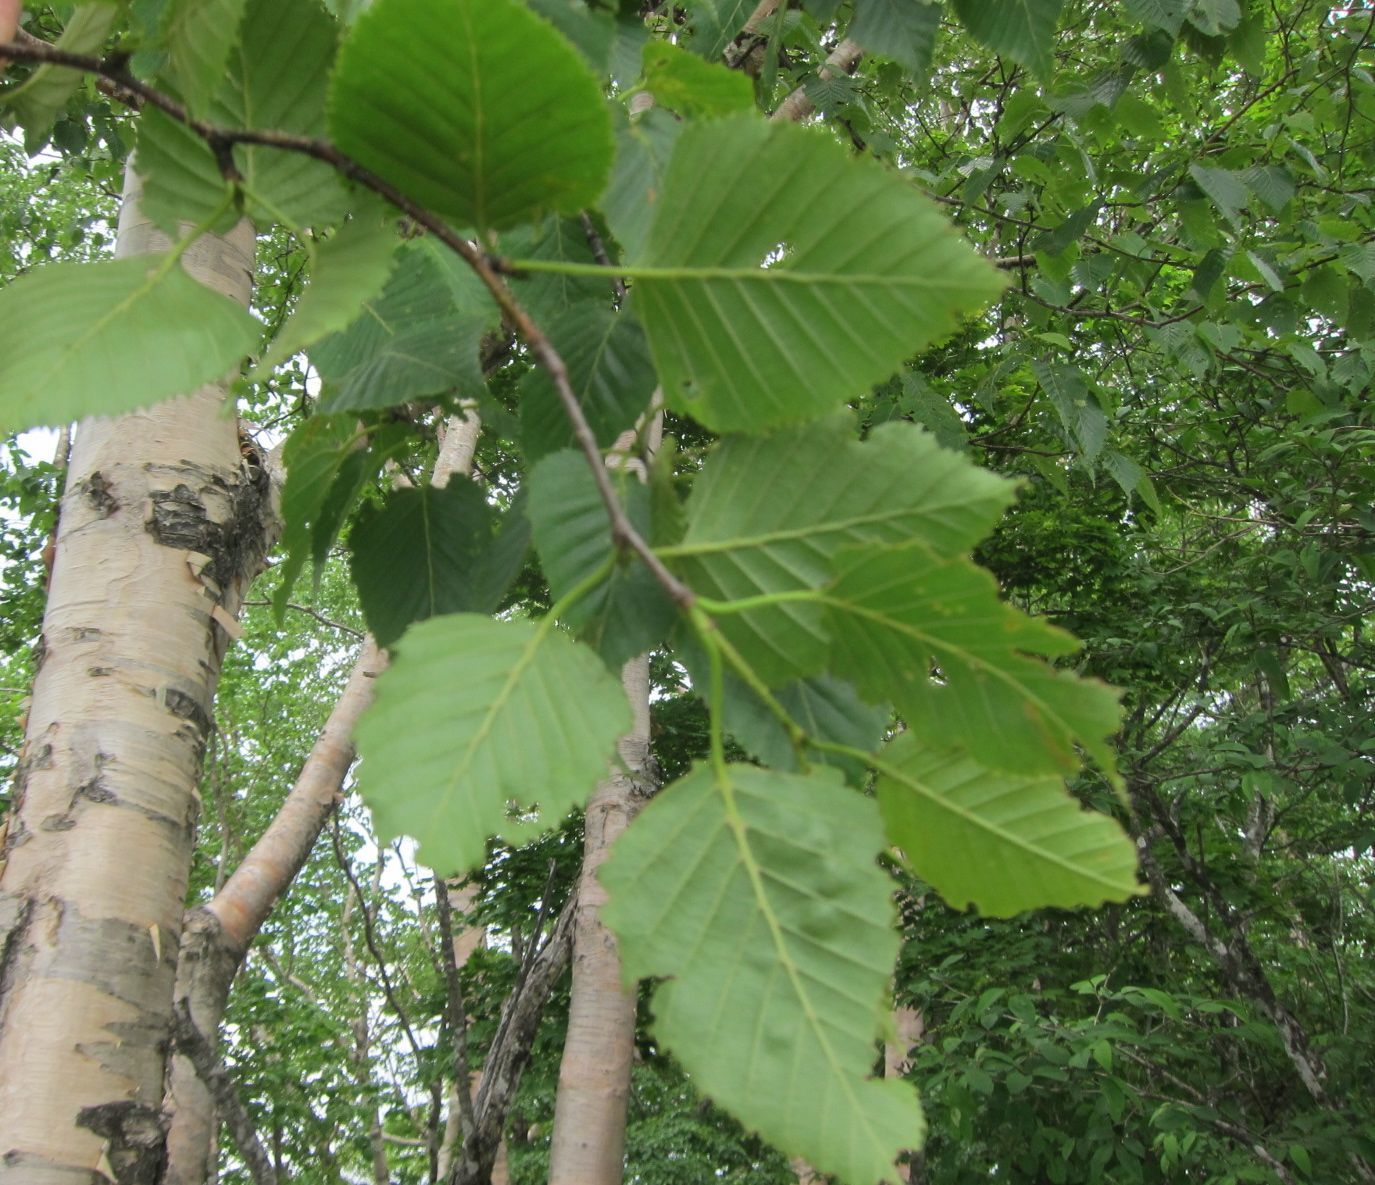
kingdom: Plantae
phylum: Tracheophyta
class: Magnoliopsida
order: Fagales
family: Betulaceae
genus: Betula
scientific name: Betula ermanii
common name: Erman's birch
